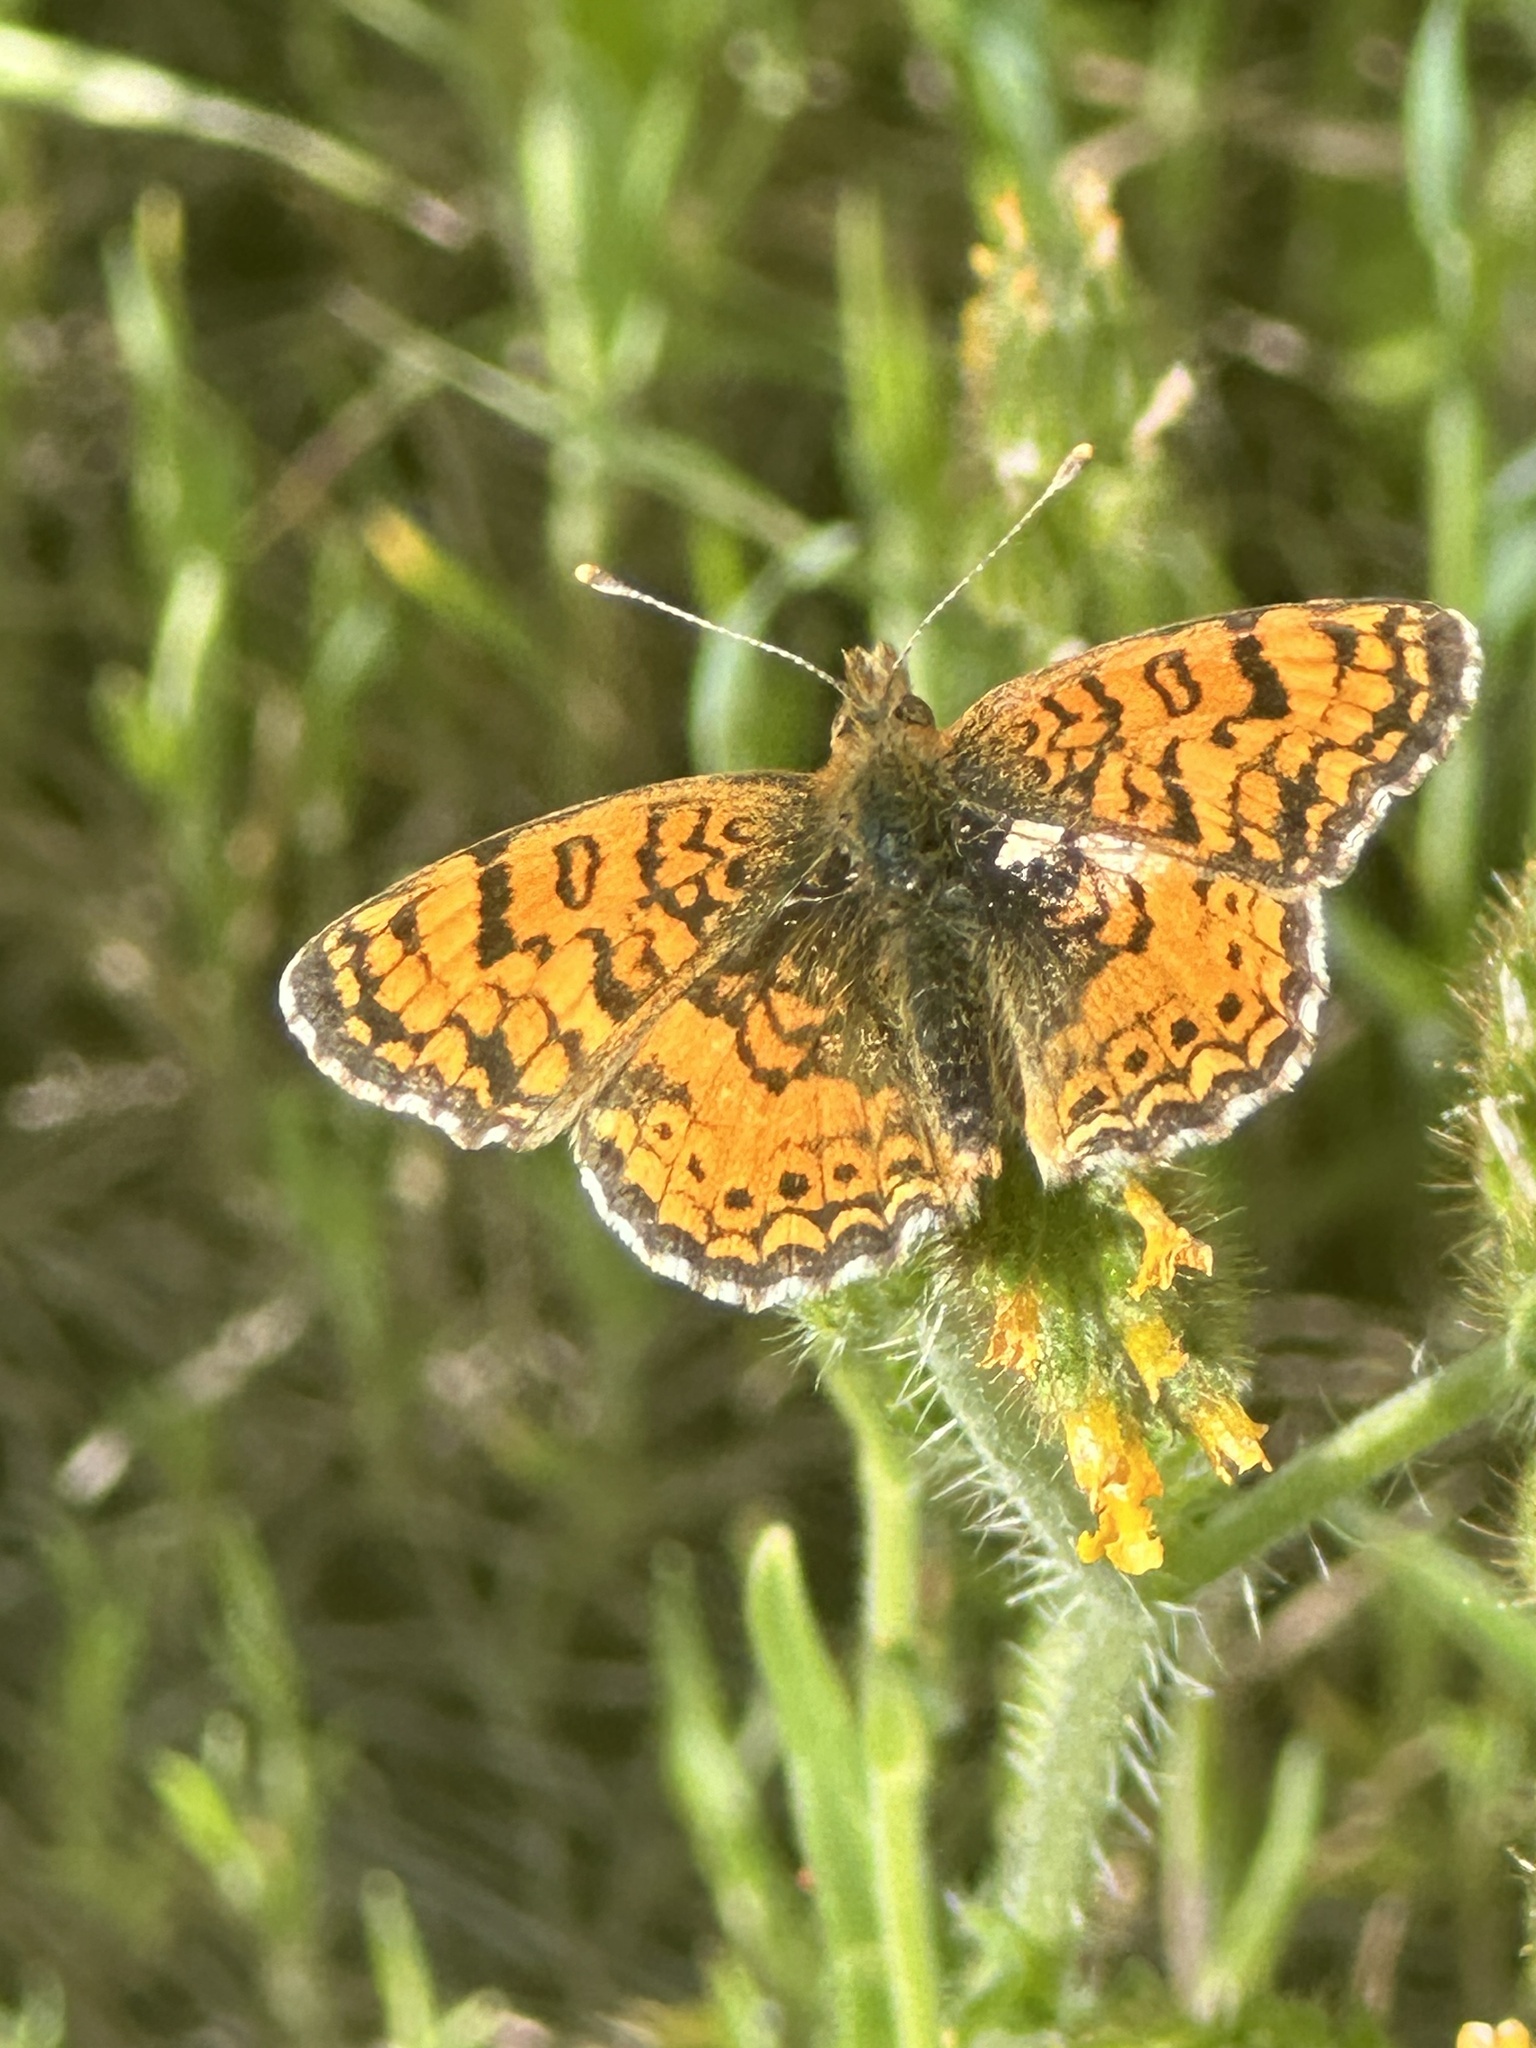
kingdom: Animalia
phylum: Arthropoda
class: Insecta
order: Lepidoptera
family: Nymphalidae
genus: Eresia
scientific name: Eresia aveyrona
